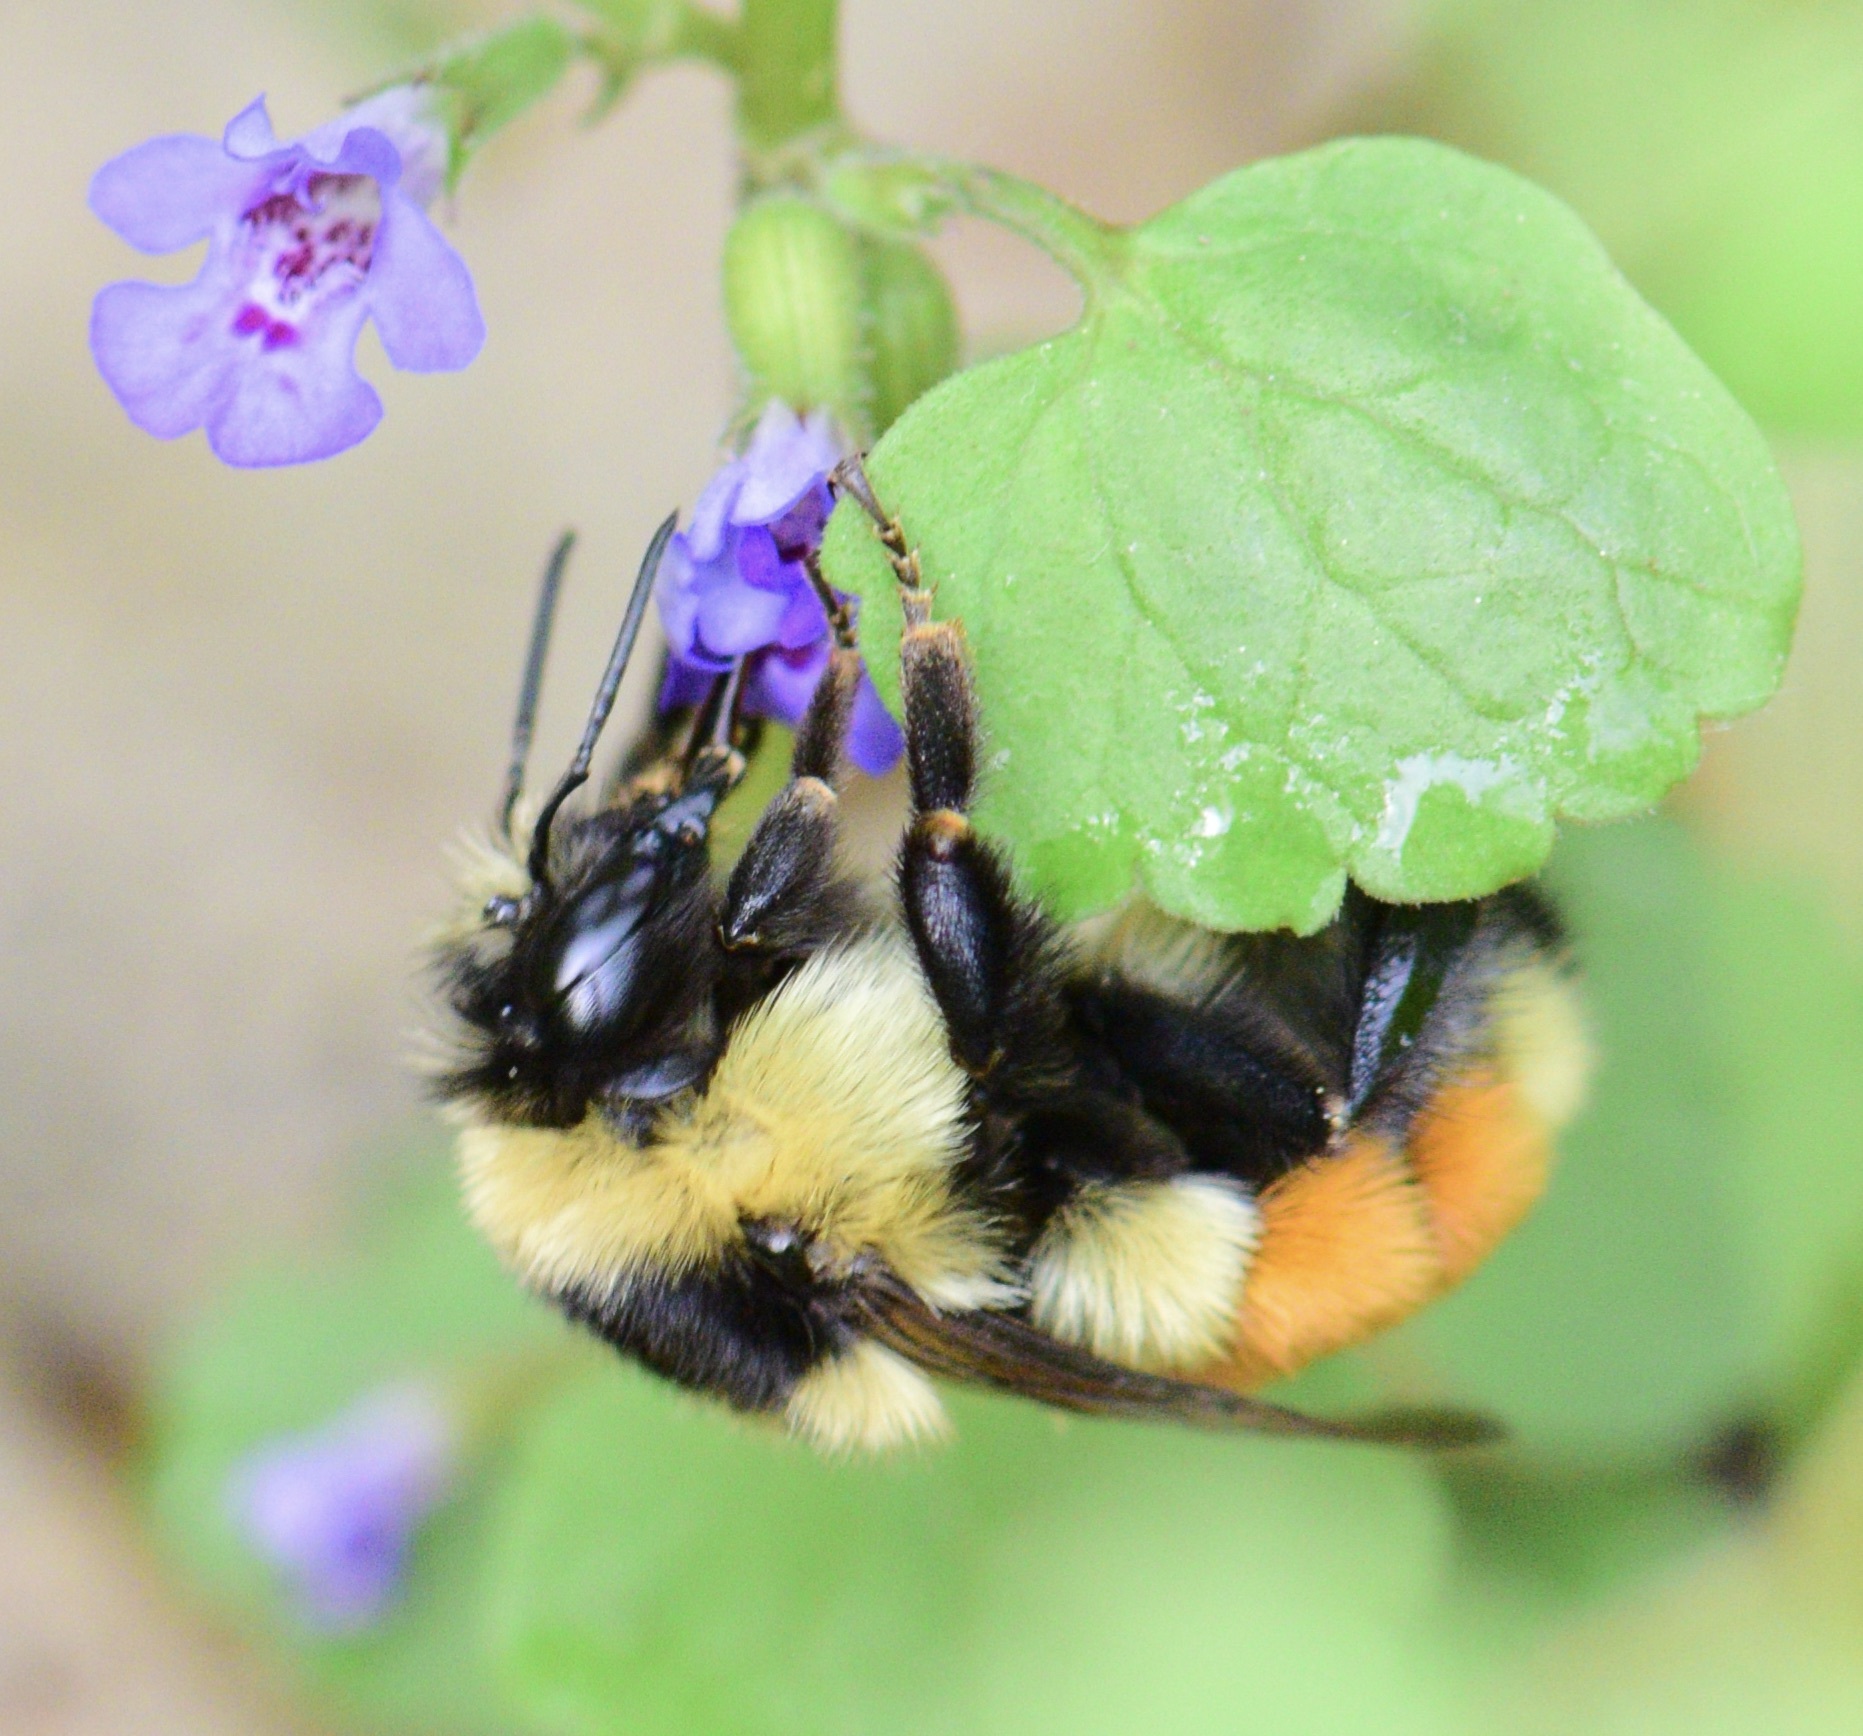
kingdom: Animalia
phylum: Arthropoda
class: Insecta
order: Hymenoptera
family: Apidae
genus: Bombus
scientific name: Bombus ternarius
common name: Tri-colored bumble bee
